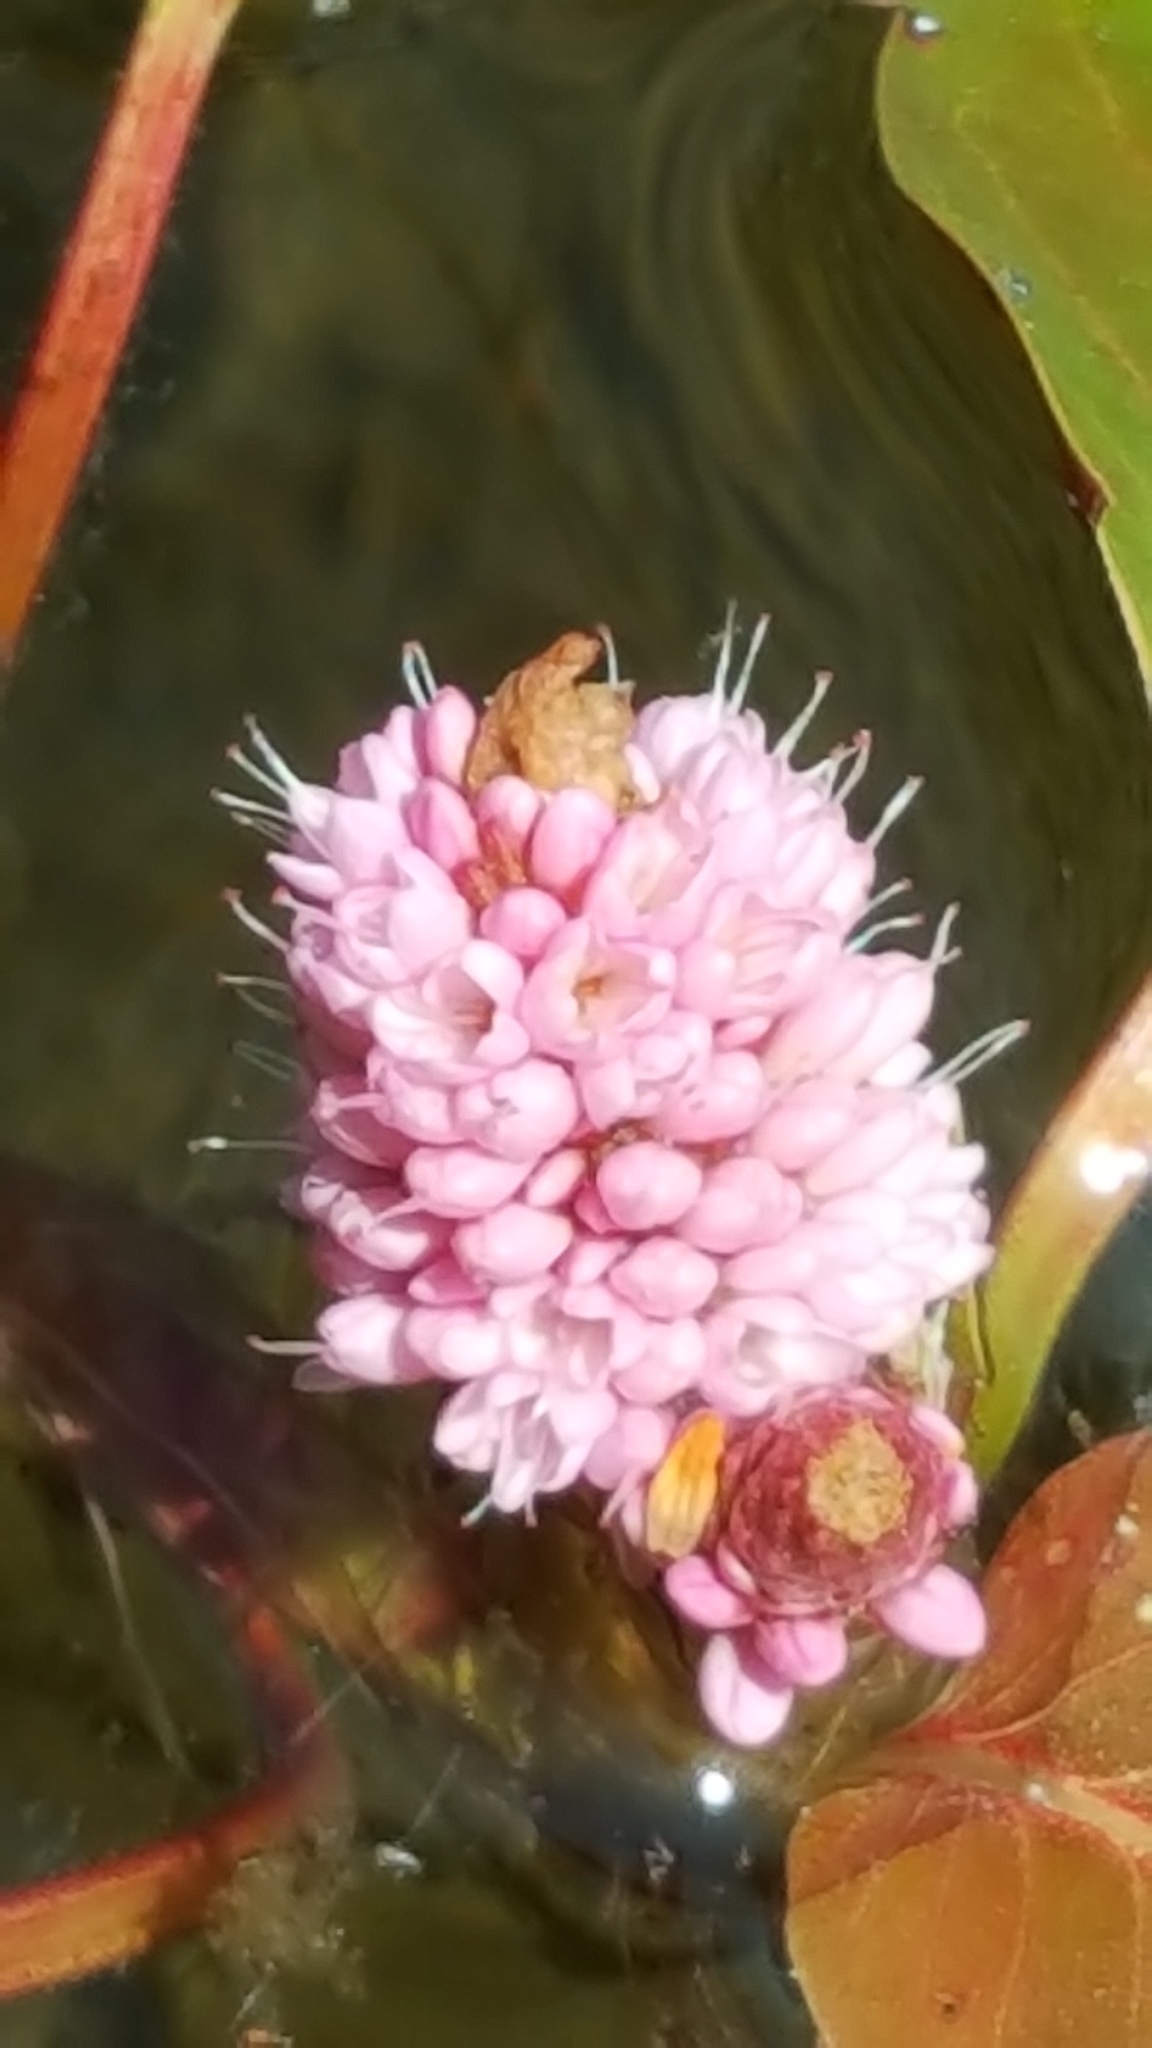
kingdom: Plantae
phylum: Tracheophyta
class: Magnoliopsida
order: Caryophyllales
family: Polygonaceae
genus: Persicaria
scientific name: Persicaria amphibia
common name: Amphibious bistort
